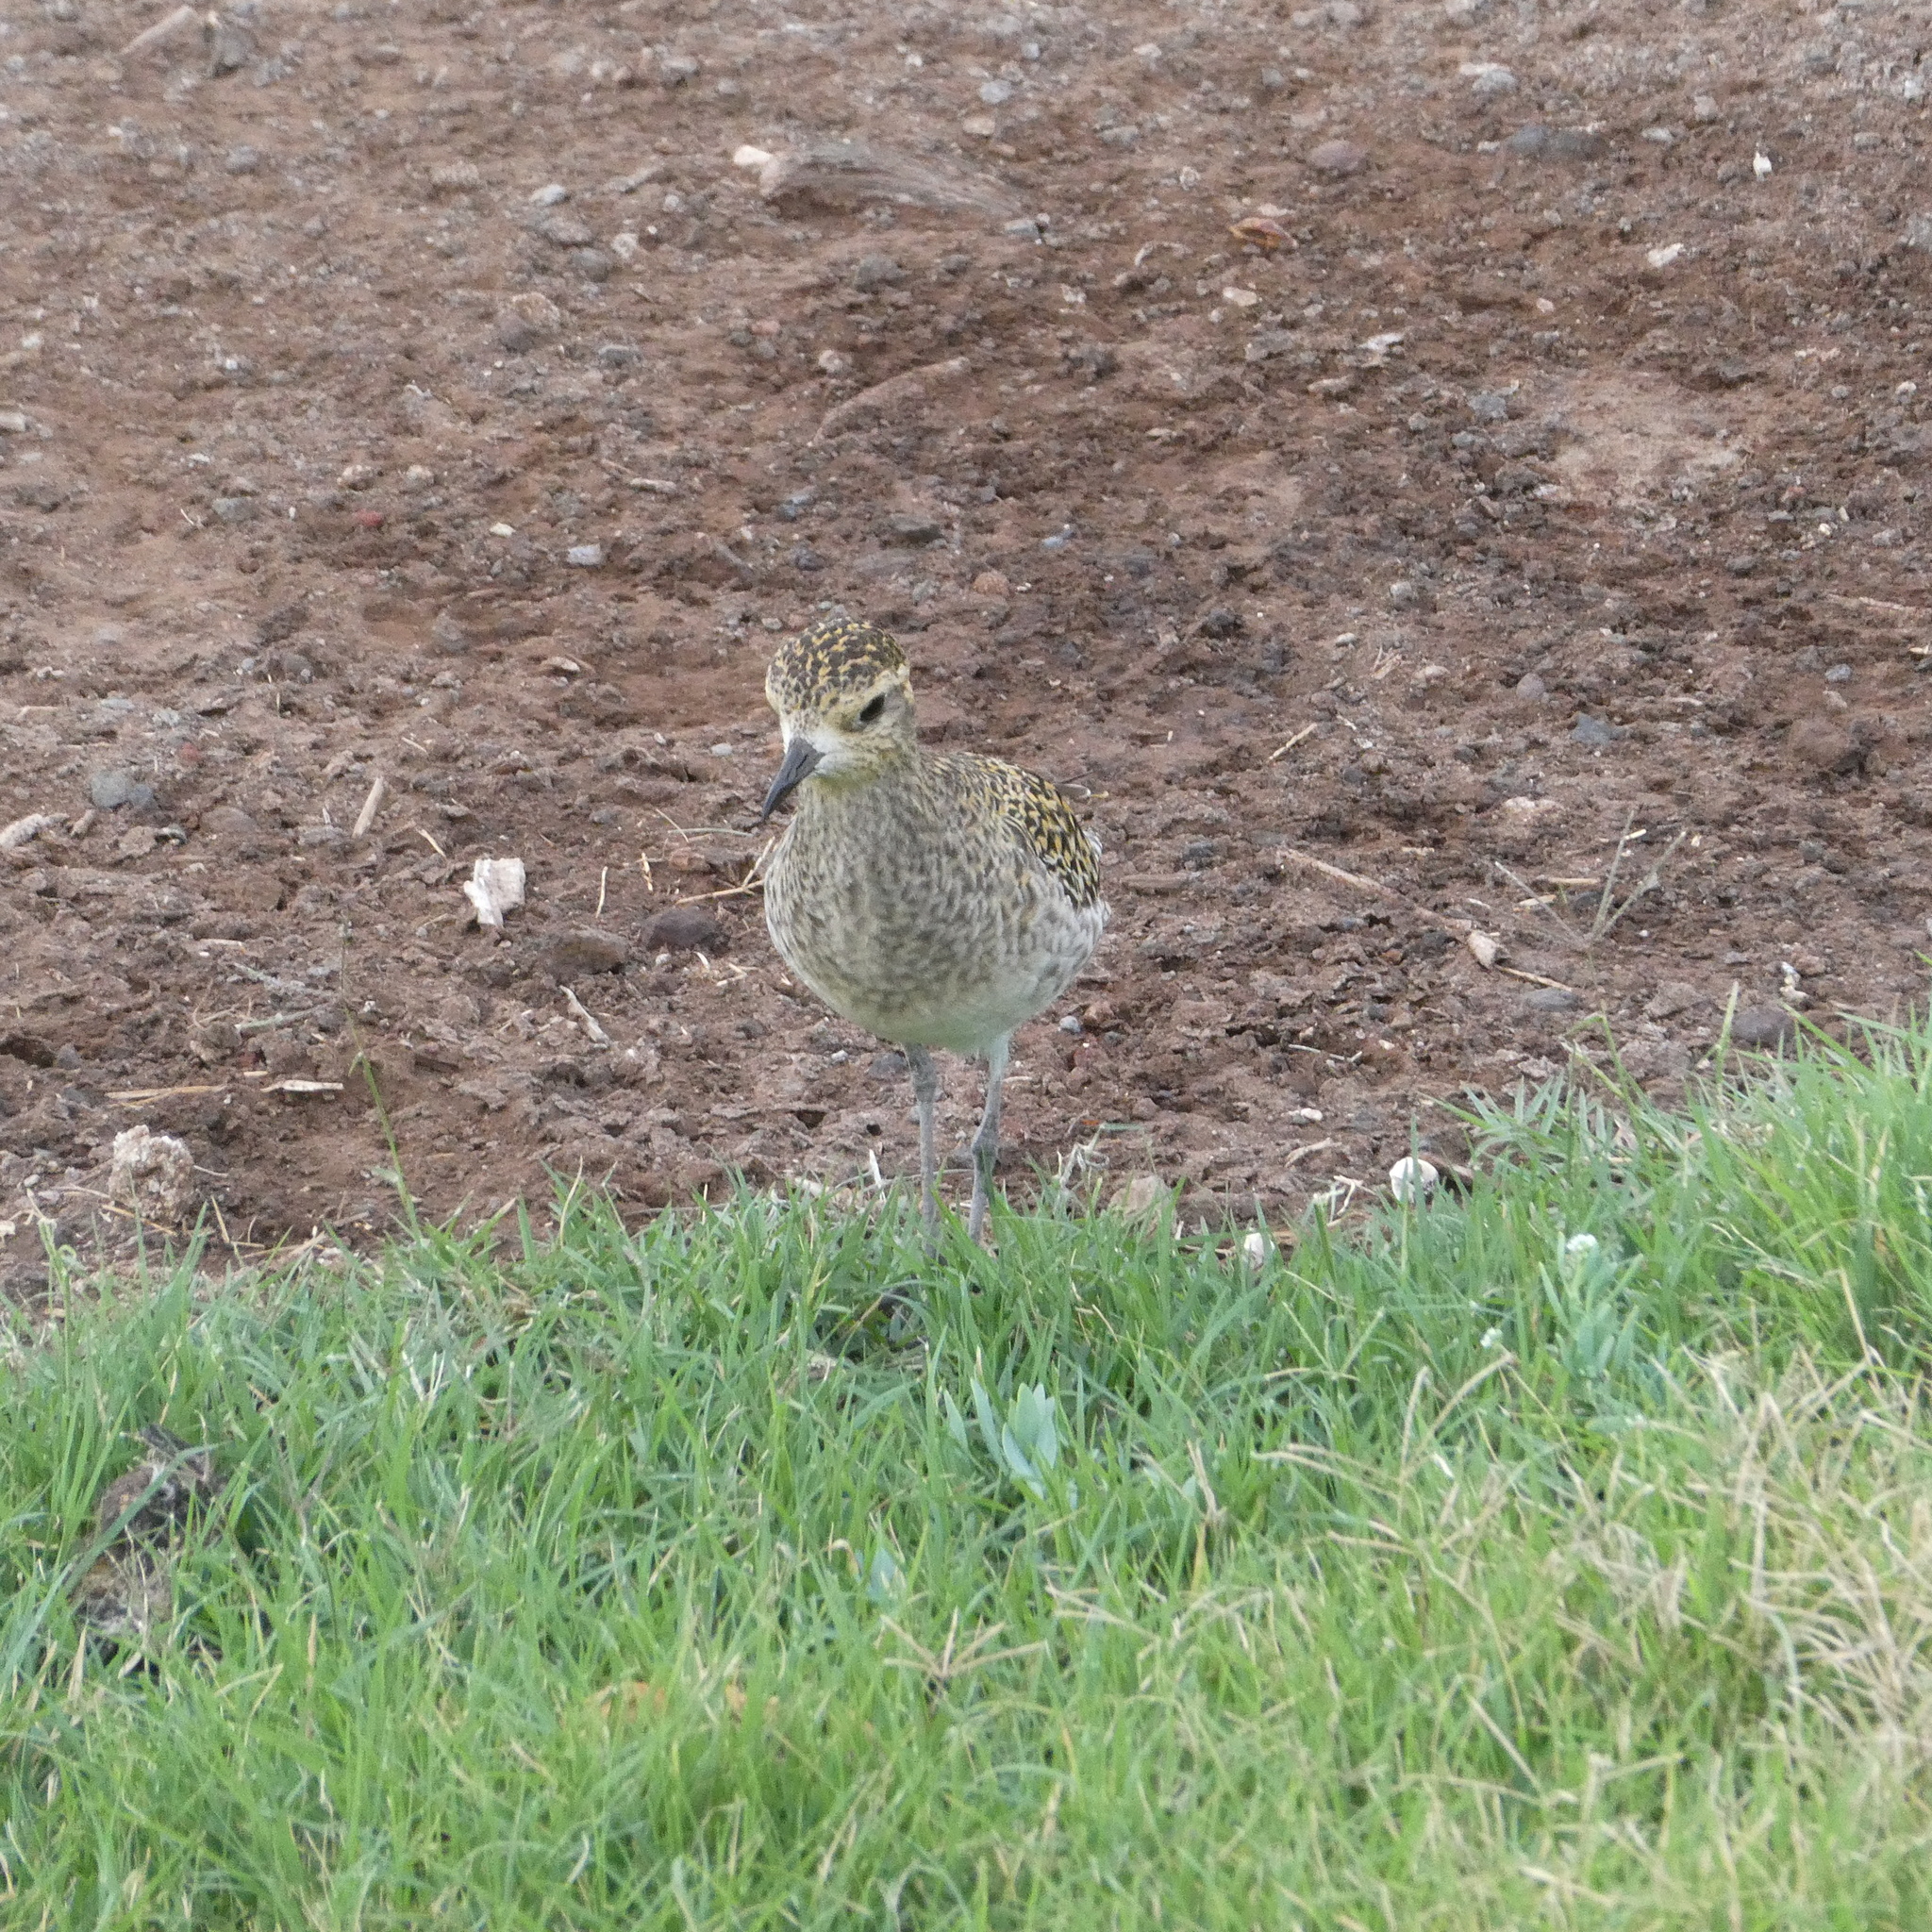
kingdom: Animalia
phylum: Chordata
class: Aves
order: Charadriiformes
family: Charadriidae
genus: Pluvialis
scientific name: Pluvialis fulva
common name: Pacific golden plover
